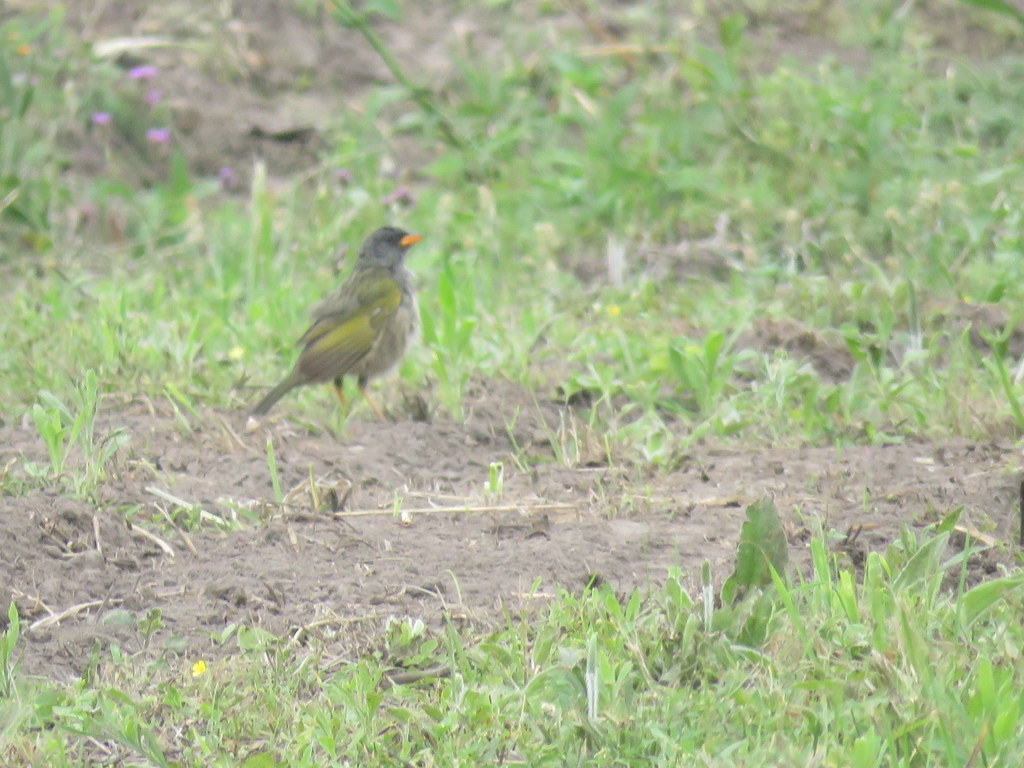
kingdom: Animalia
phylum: Chordata
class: Aves
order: Passeriformes
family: Thraupidae
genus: Embernagra
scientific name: Embernagra platensis
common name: Pampa finch
